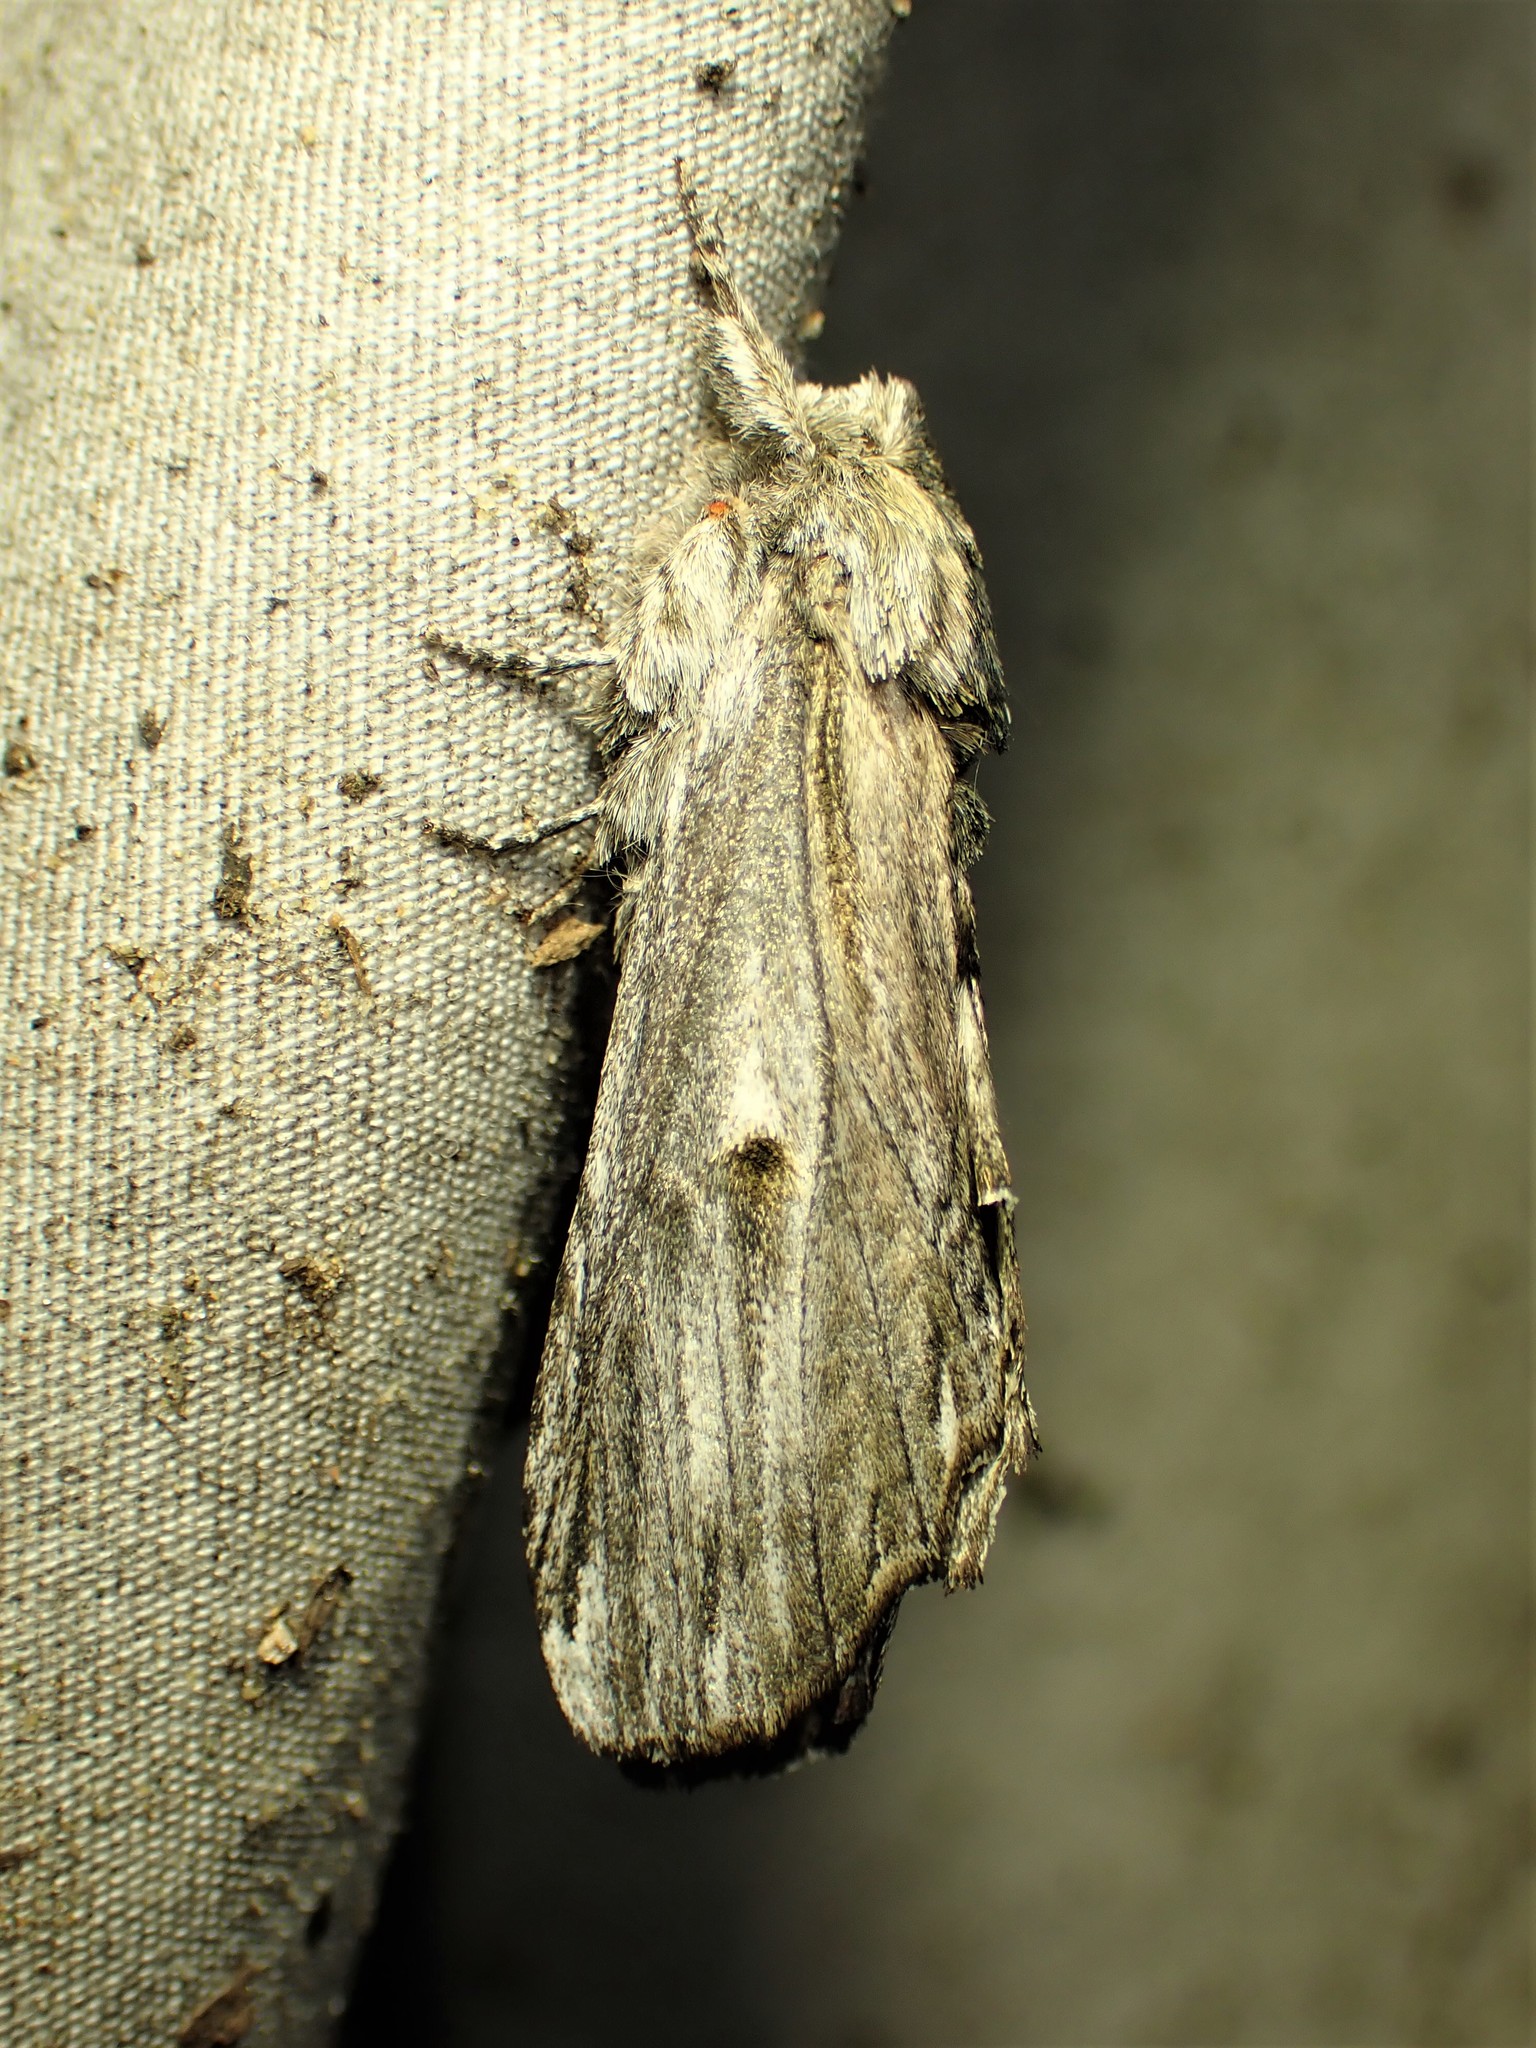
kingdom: Animalia
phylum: Arthropoda
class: Insecta
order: Lepidoptera
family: Notodontidae
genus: Oligocentria
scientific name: Oligocentria Ianassa lignicolor
